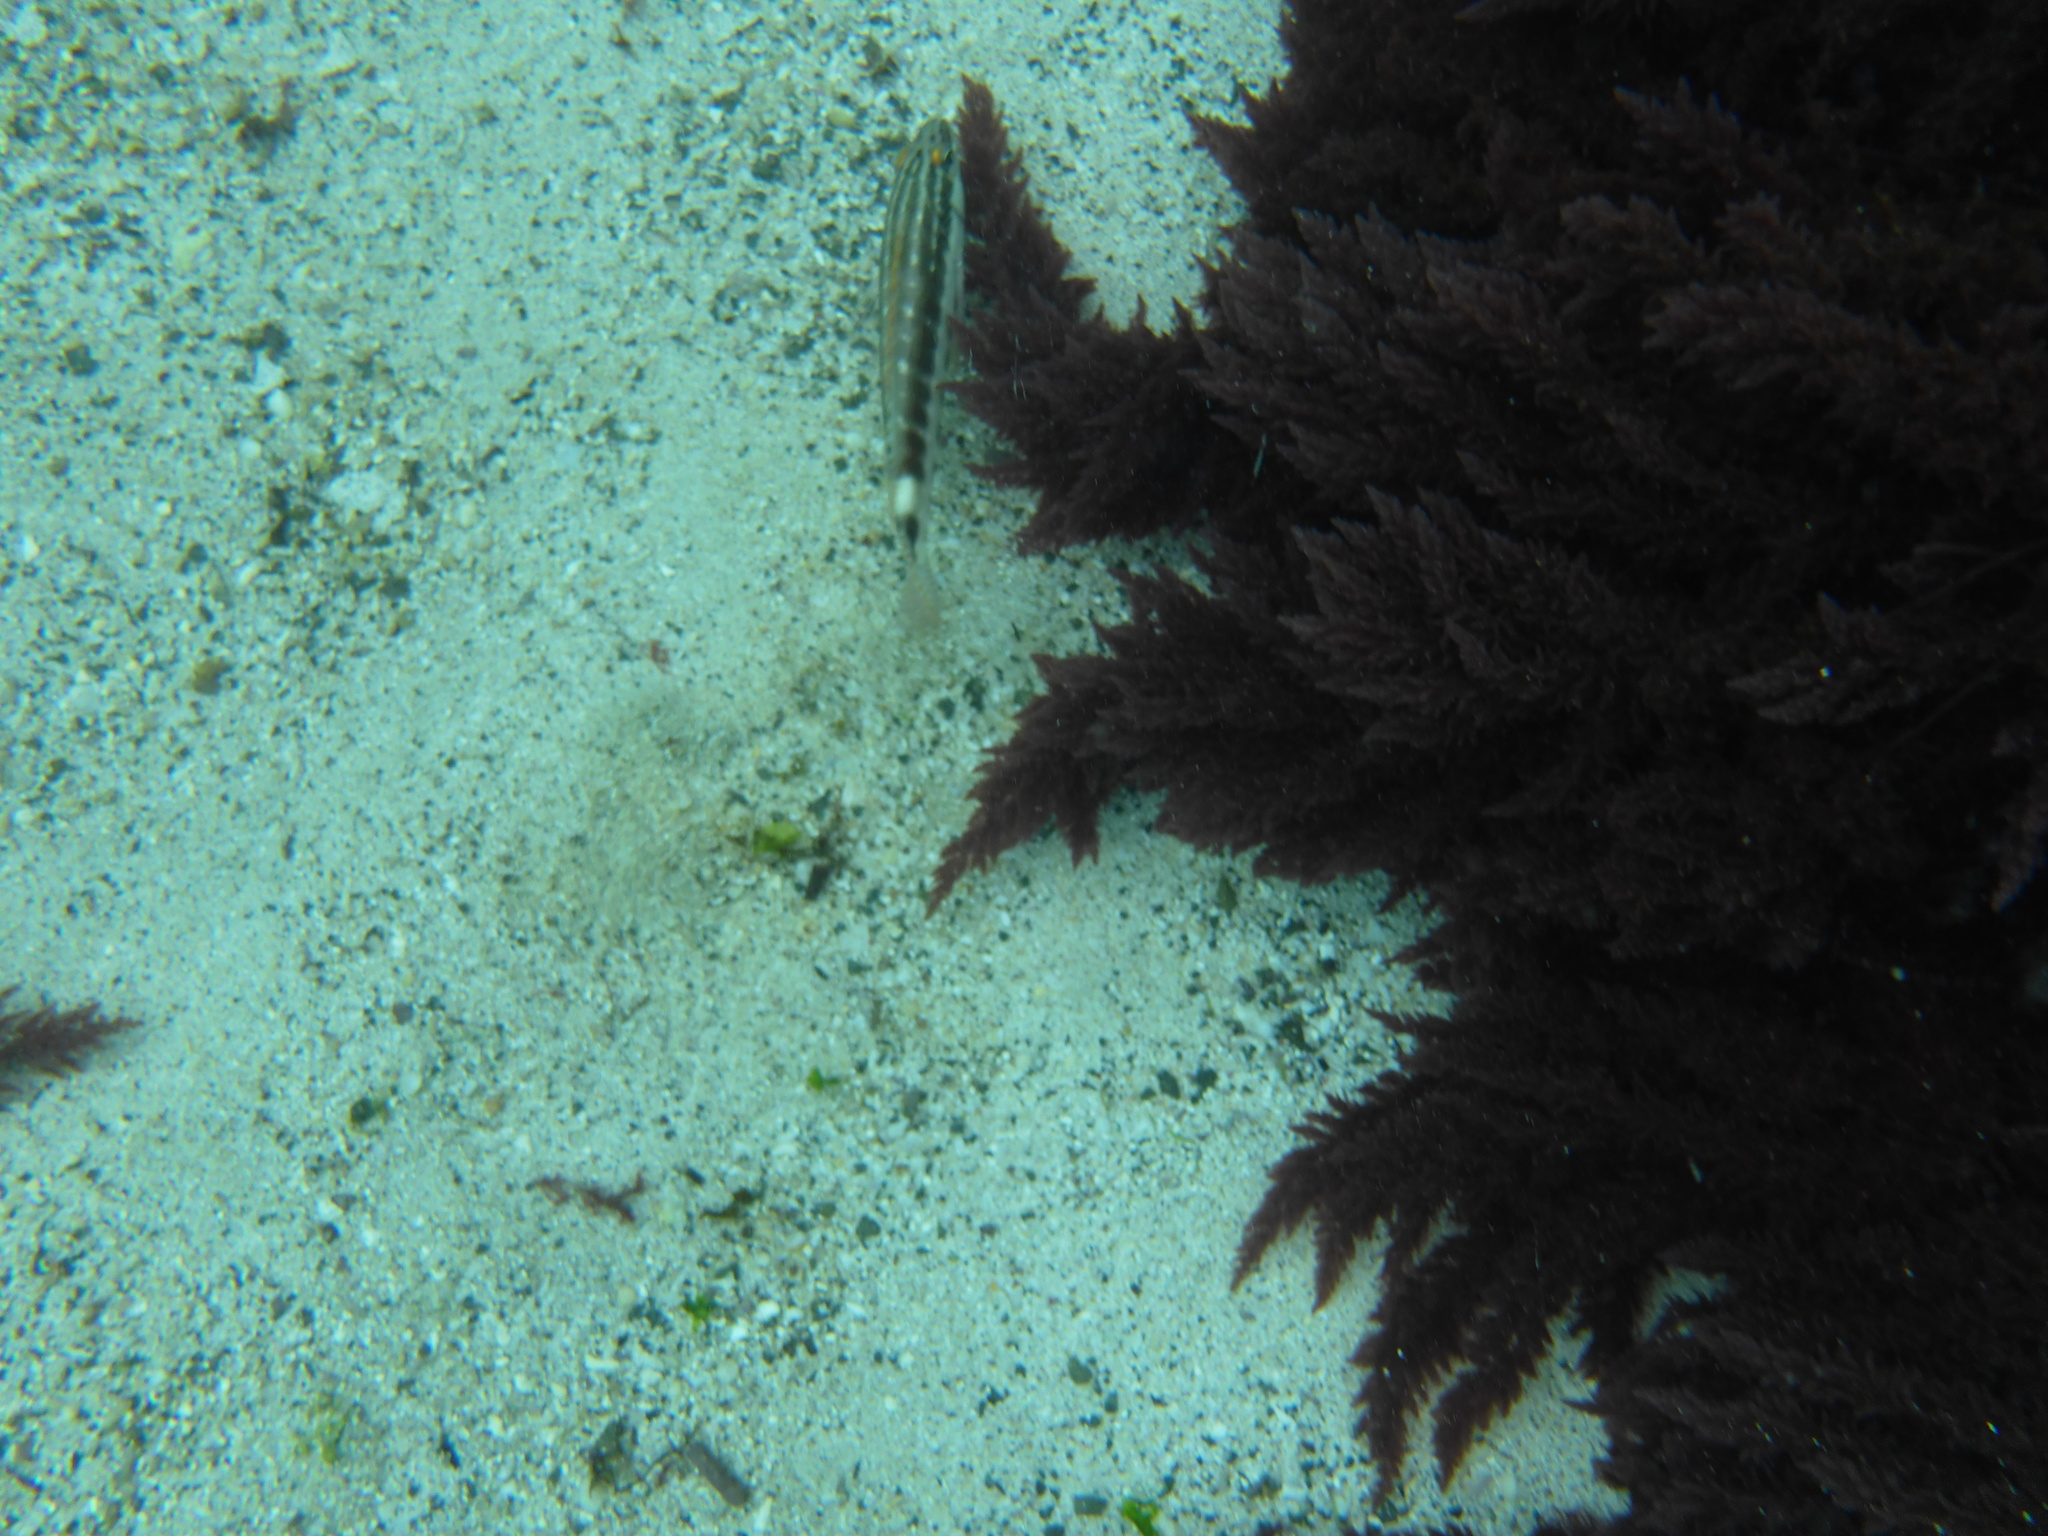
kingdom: Animalia
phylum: Chordata
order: Perciformes
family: Serranidae
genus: Serranus
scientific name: Serranus psittacinus
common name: Barred serrano
